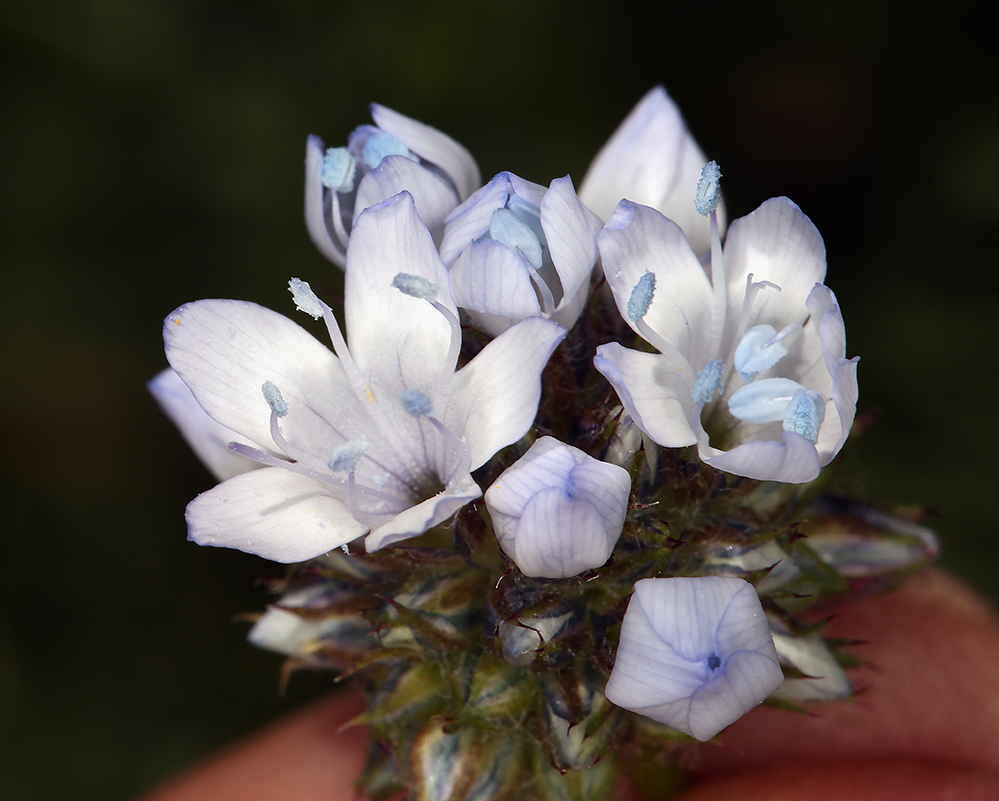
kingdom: Plantae
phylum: Tracheophyta
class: Magnoliopsida
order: Ericales
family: Polemoniaceae
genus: Gilia
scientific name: Gilia capitata
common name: Bluehead gilia
